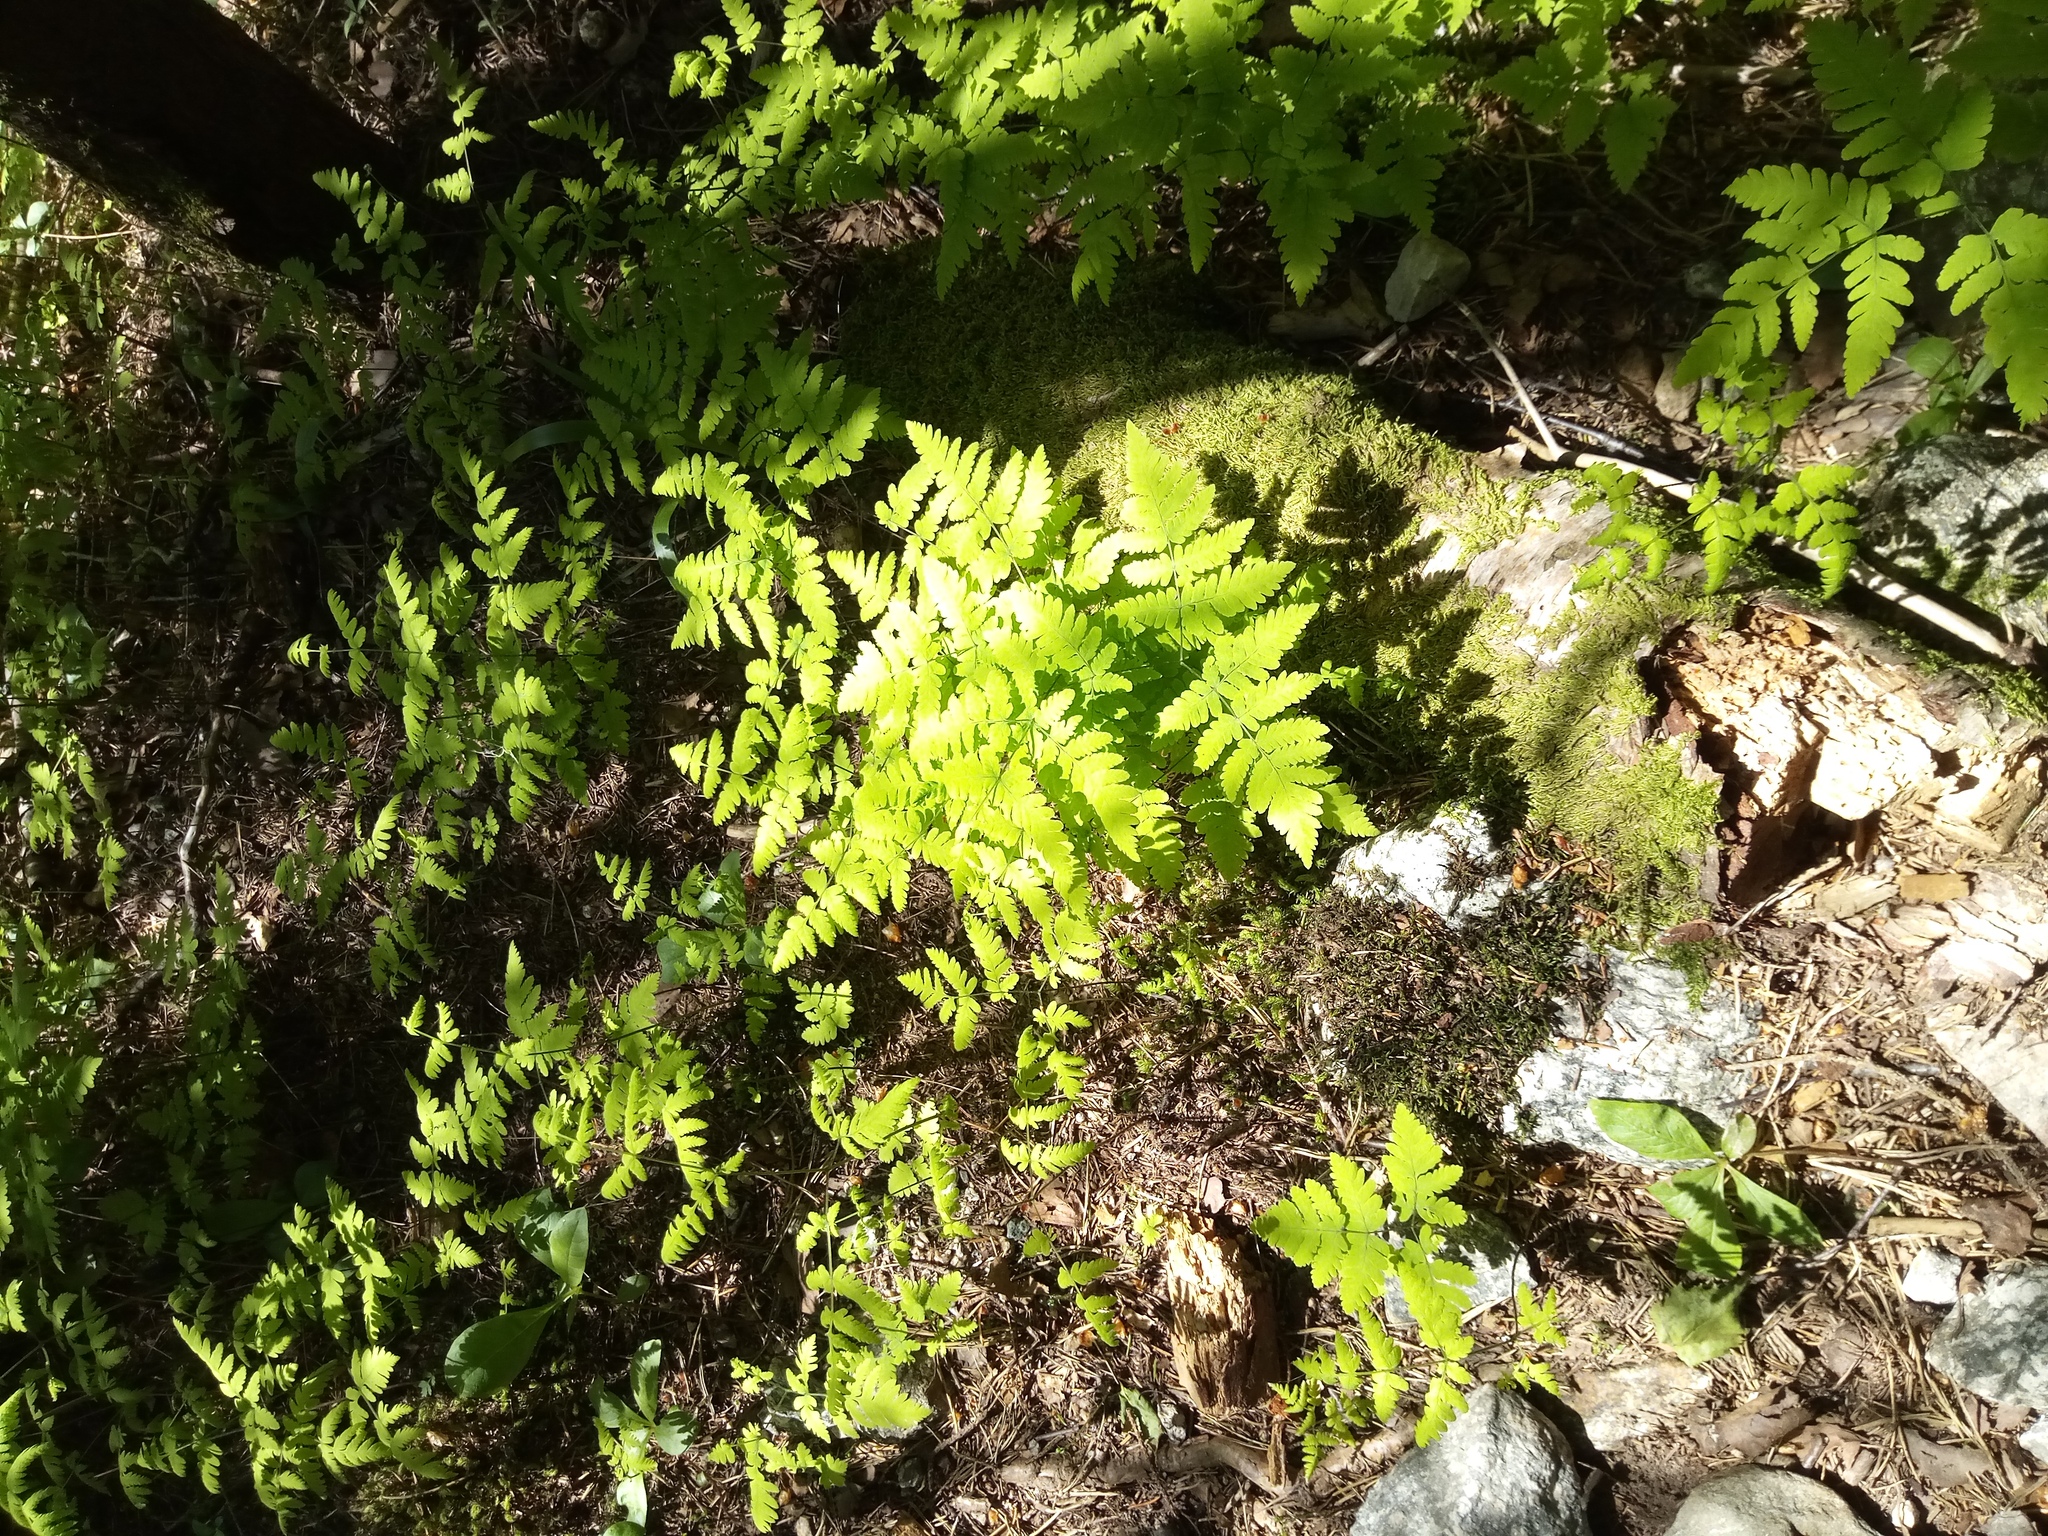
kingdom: Plantae
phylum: Tracheophyta
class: Polypodiopsida
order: Polypodiales
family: Cystopteridaceae
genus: Gymnocarpium
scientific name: Gymnocarpium dryopteris
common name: Oak fern
